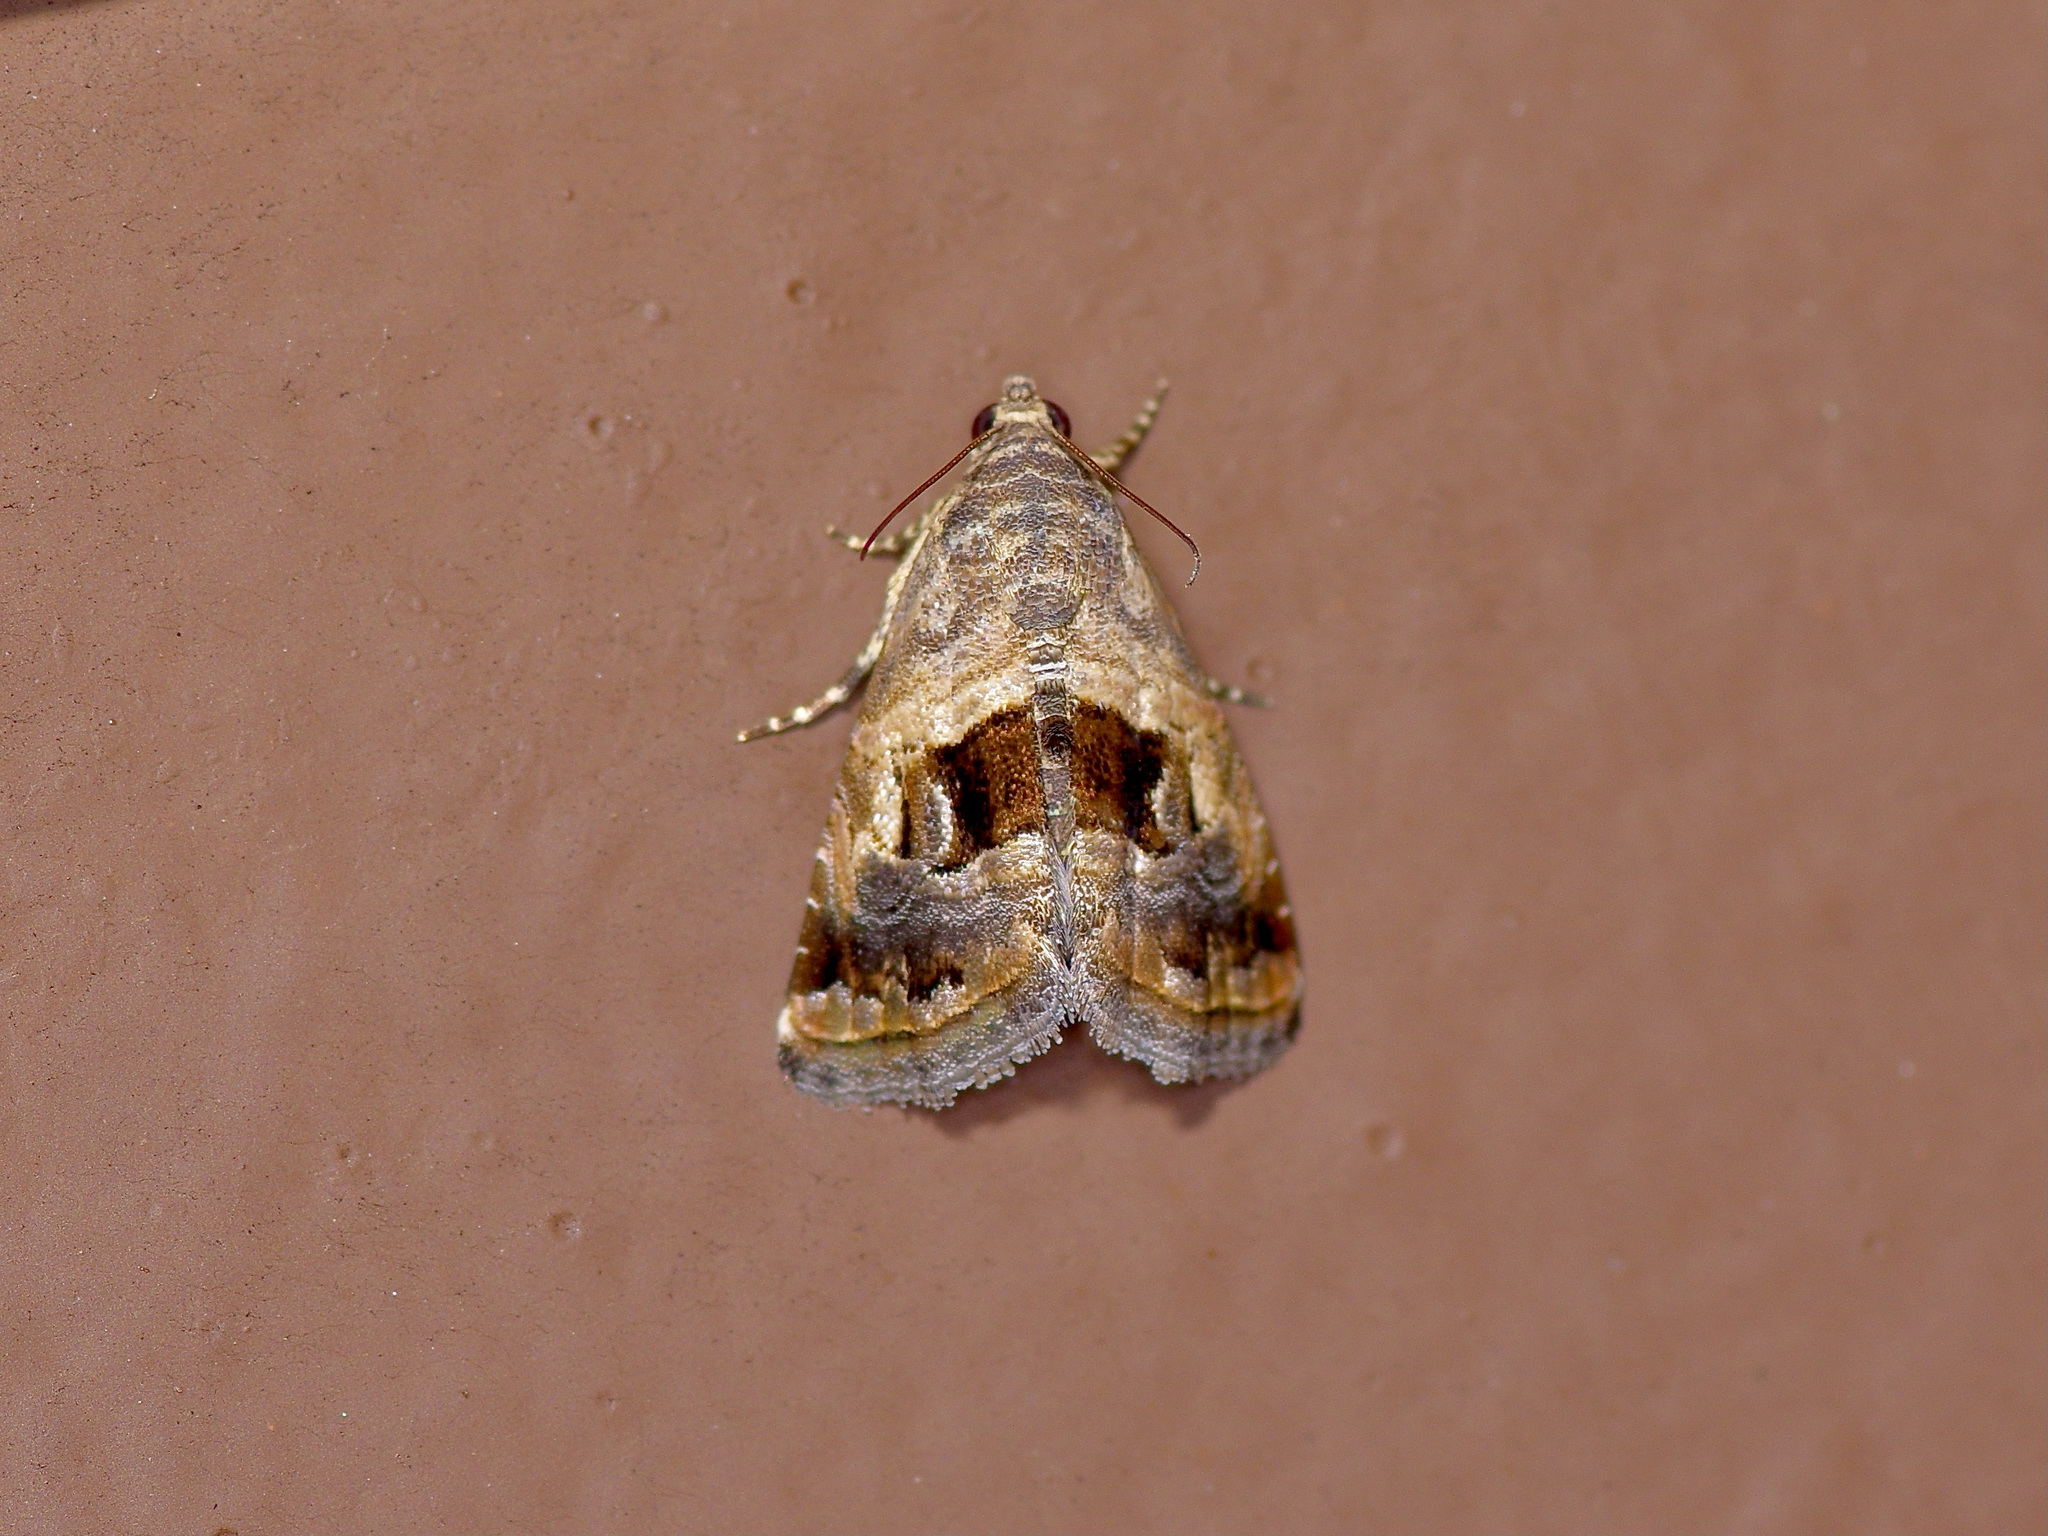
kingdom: Animalia
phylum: Arthropoda
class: Insecta
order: Lepidoptera
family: Noctuidae
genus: Tripudia
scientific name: Tripudia quadrifera
